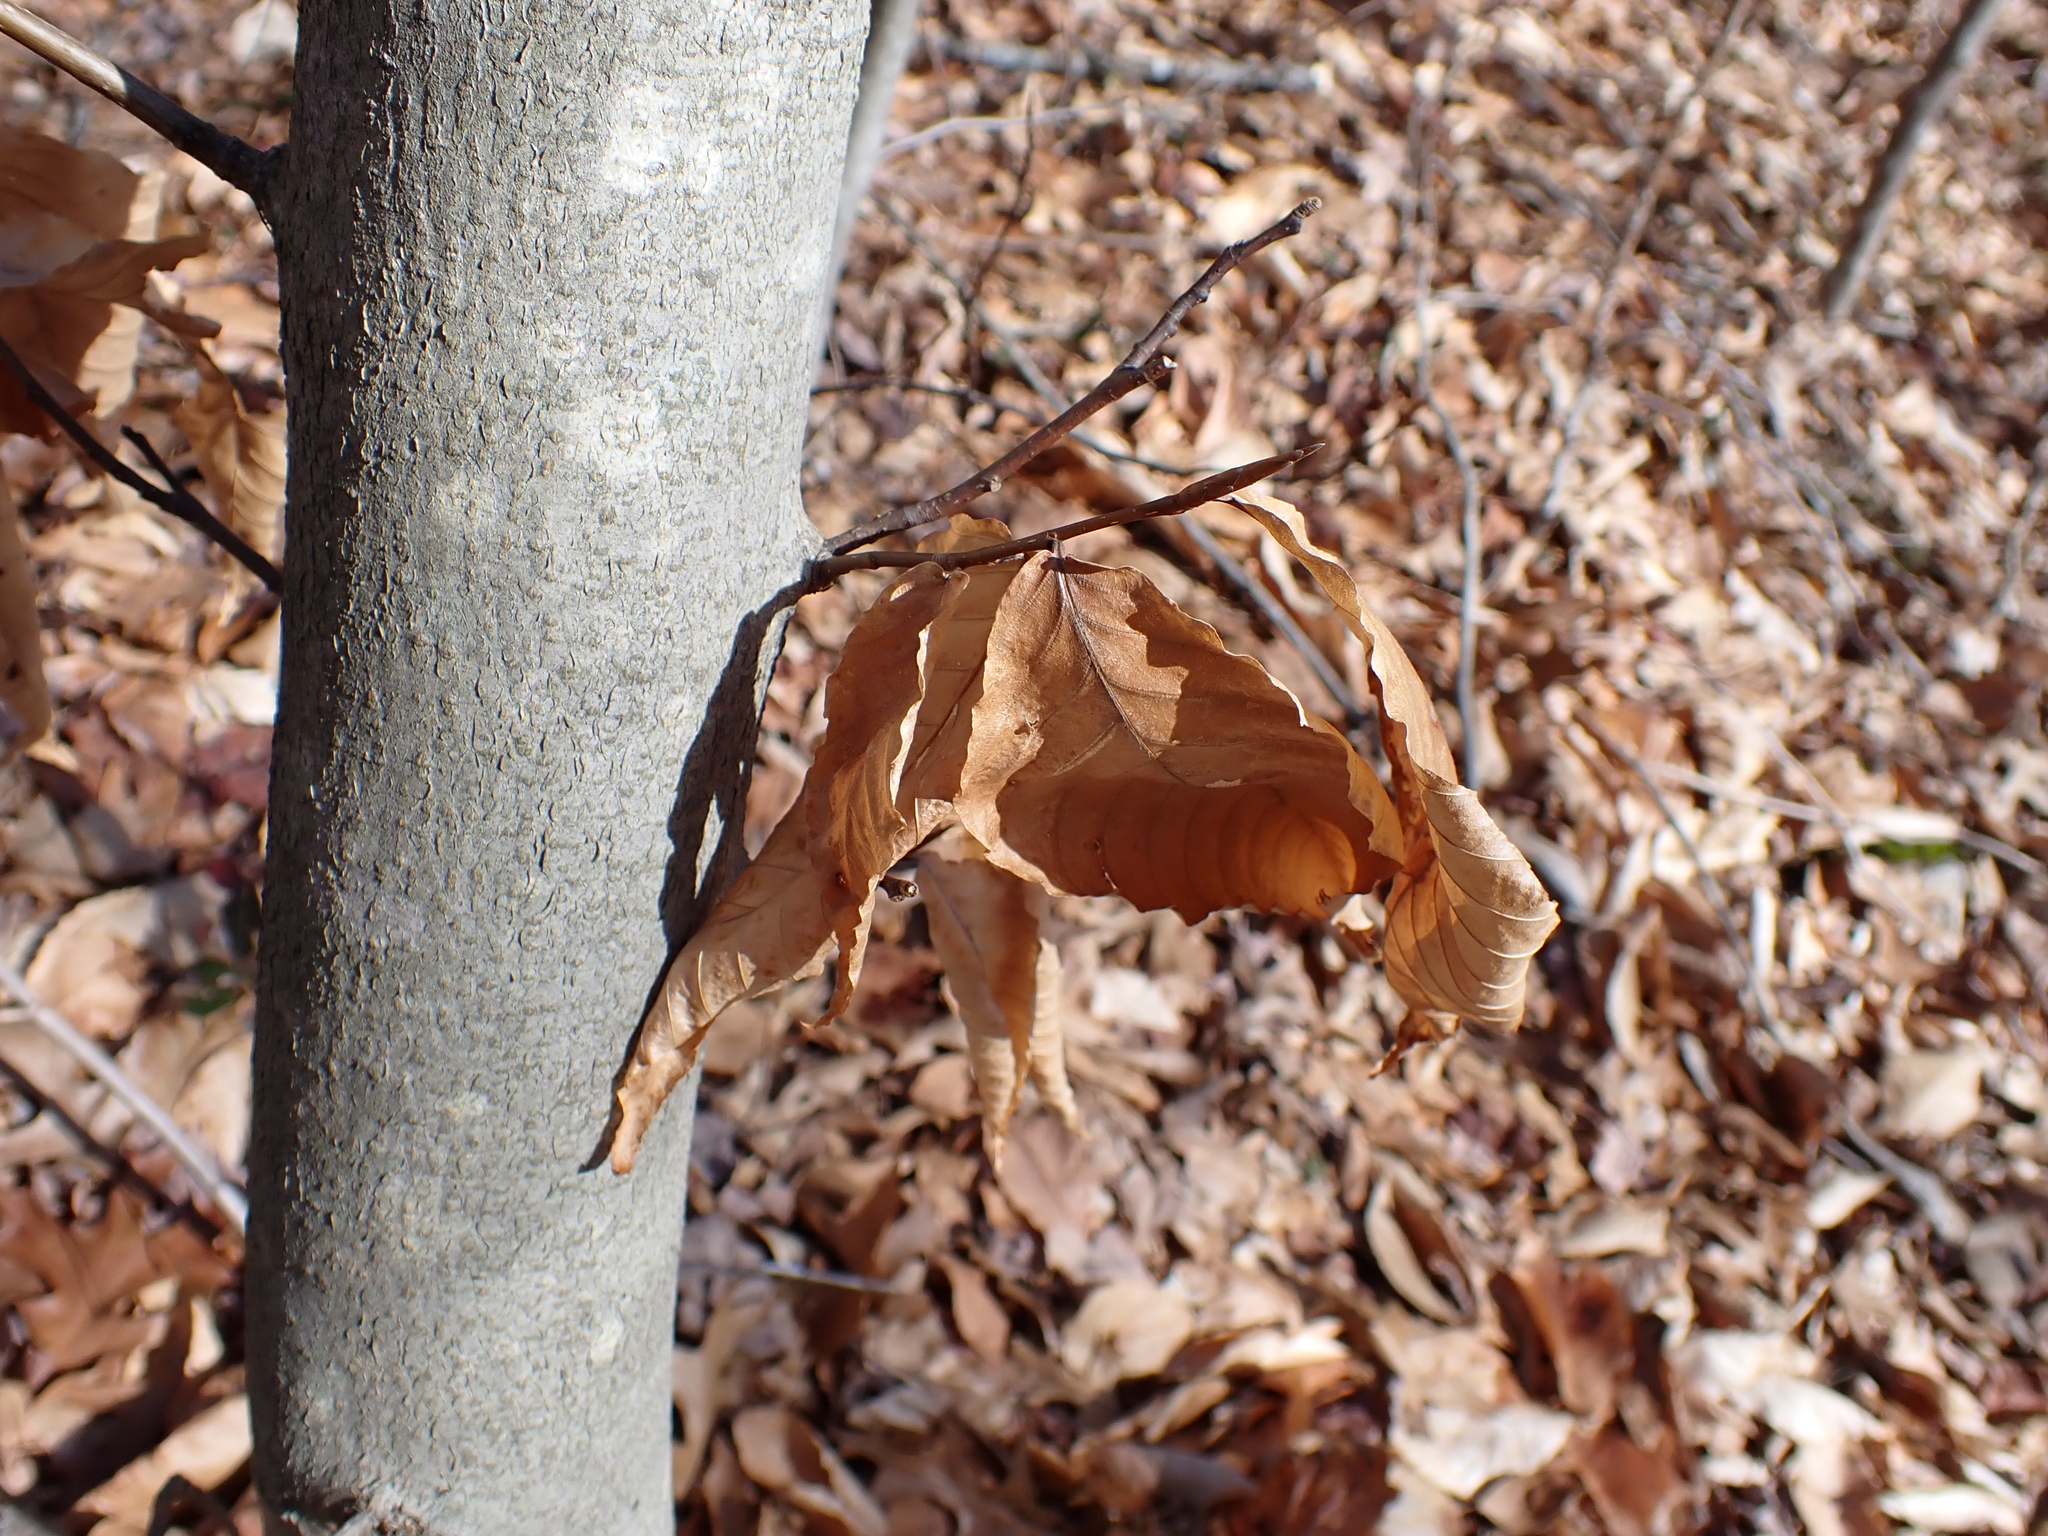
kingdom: Plantae
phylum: Tracheophyta
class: Magnoliopsida
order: Fagales
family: Fagaceae
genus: Fagus
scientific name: Fagus grandifolia
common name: American beech
